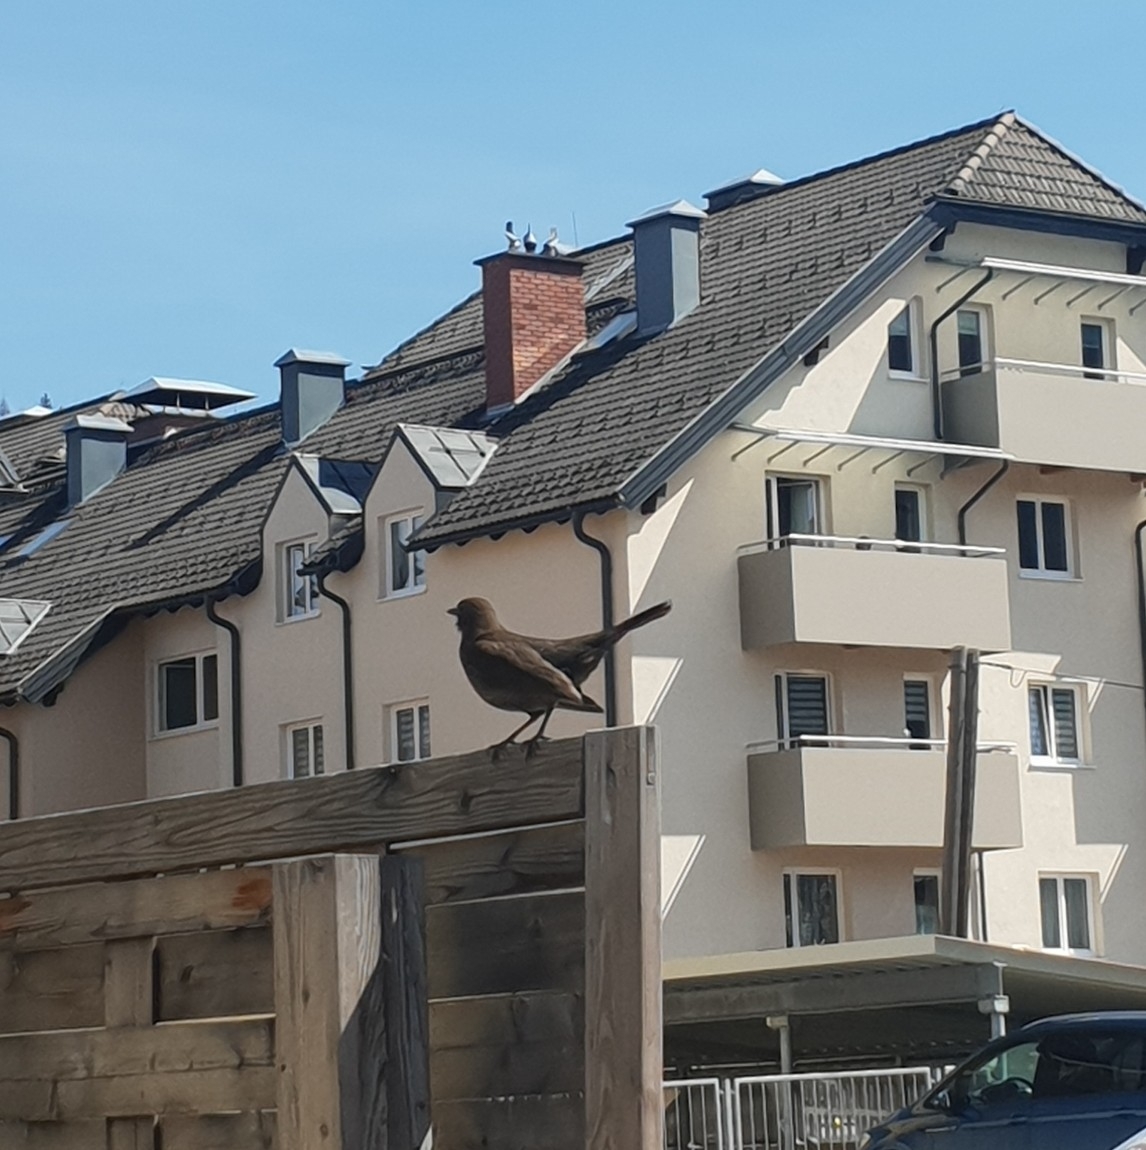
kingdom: Animalia
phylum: Chordata
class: Aves
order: Passeriformes
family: Turdidae
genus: Turdus
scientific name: Turdus merula
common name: Common blackbird
